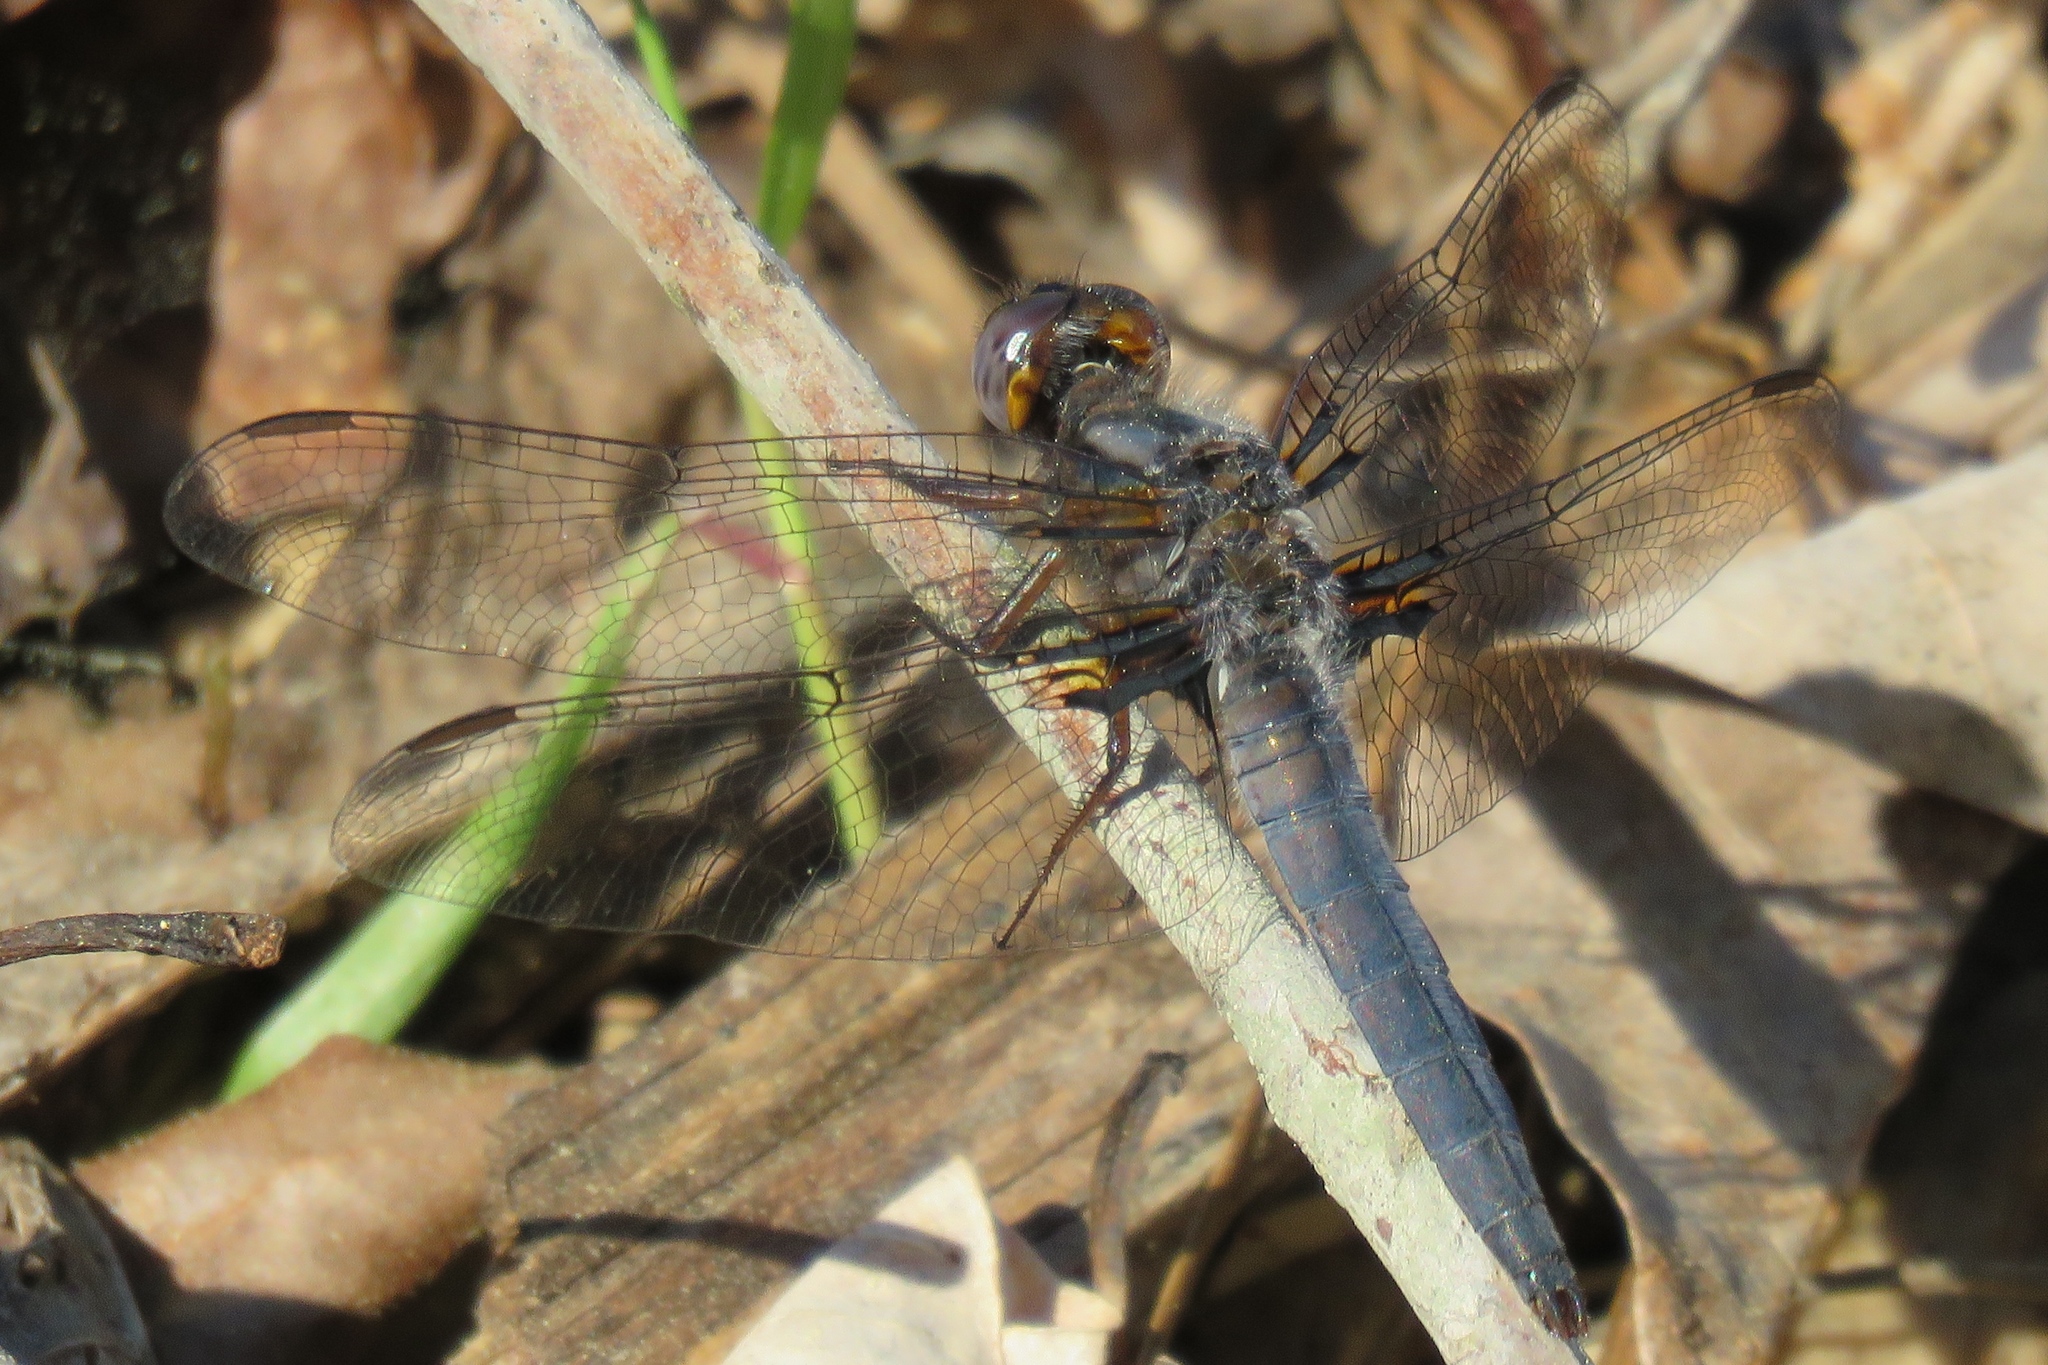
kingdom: Animalia
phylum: Arthropoda
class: Insecta
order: Odonata
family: Libellulidae
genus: Ladona
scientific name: Ladona deplanata
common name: Blue corporal
